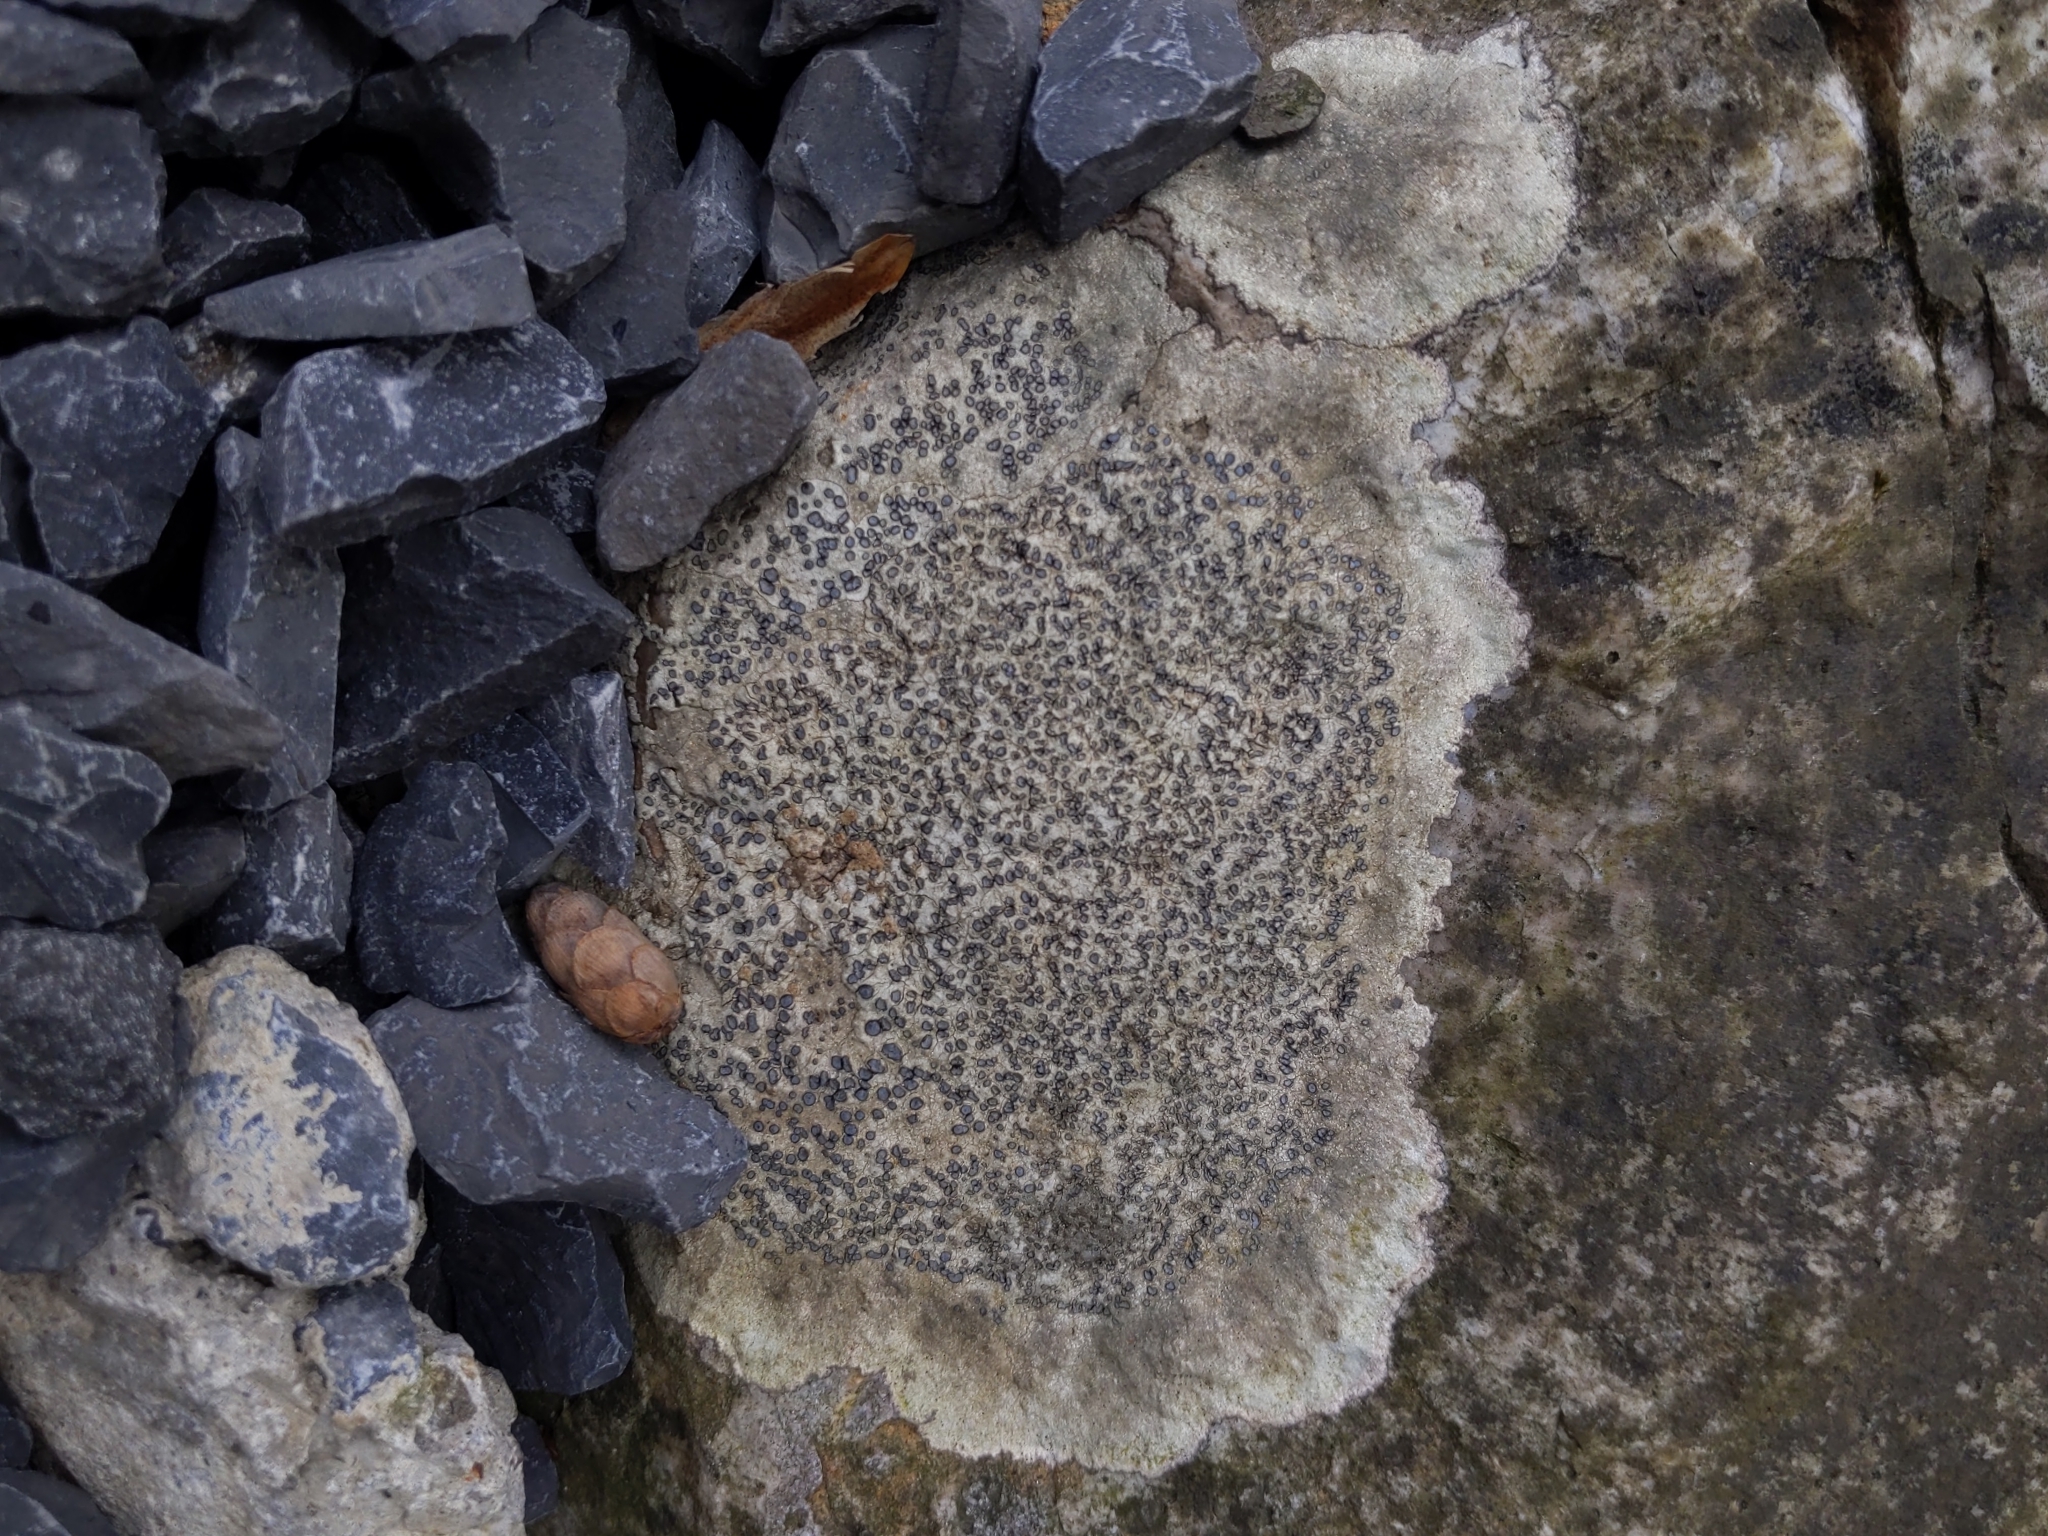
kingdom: Fungi
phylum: Ascomycota
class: Lecanoromycetes
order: Lecideales
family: Lecideaceae
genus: Porpidia
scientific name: Porpidia albocaerulescens
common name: Smokey-eyed boulder lichen
